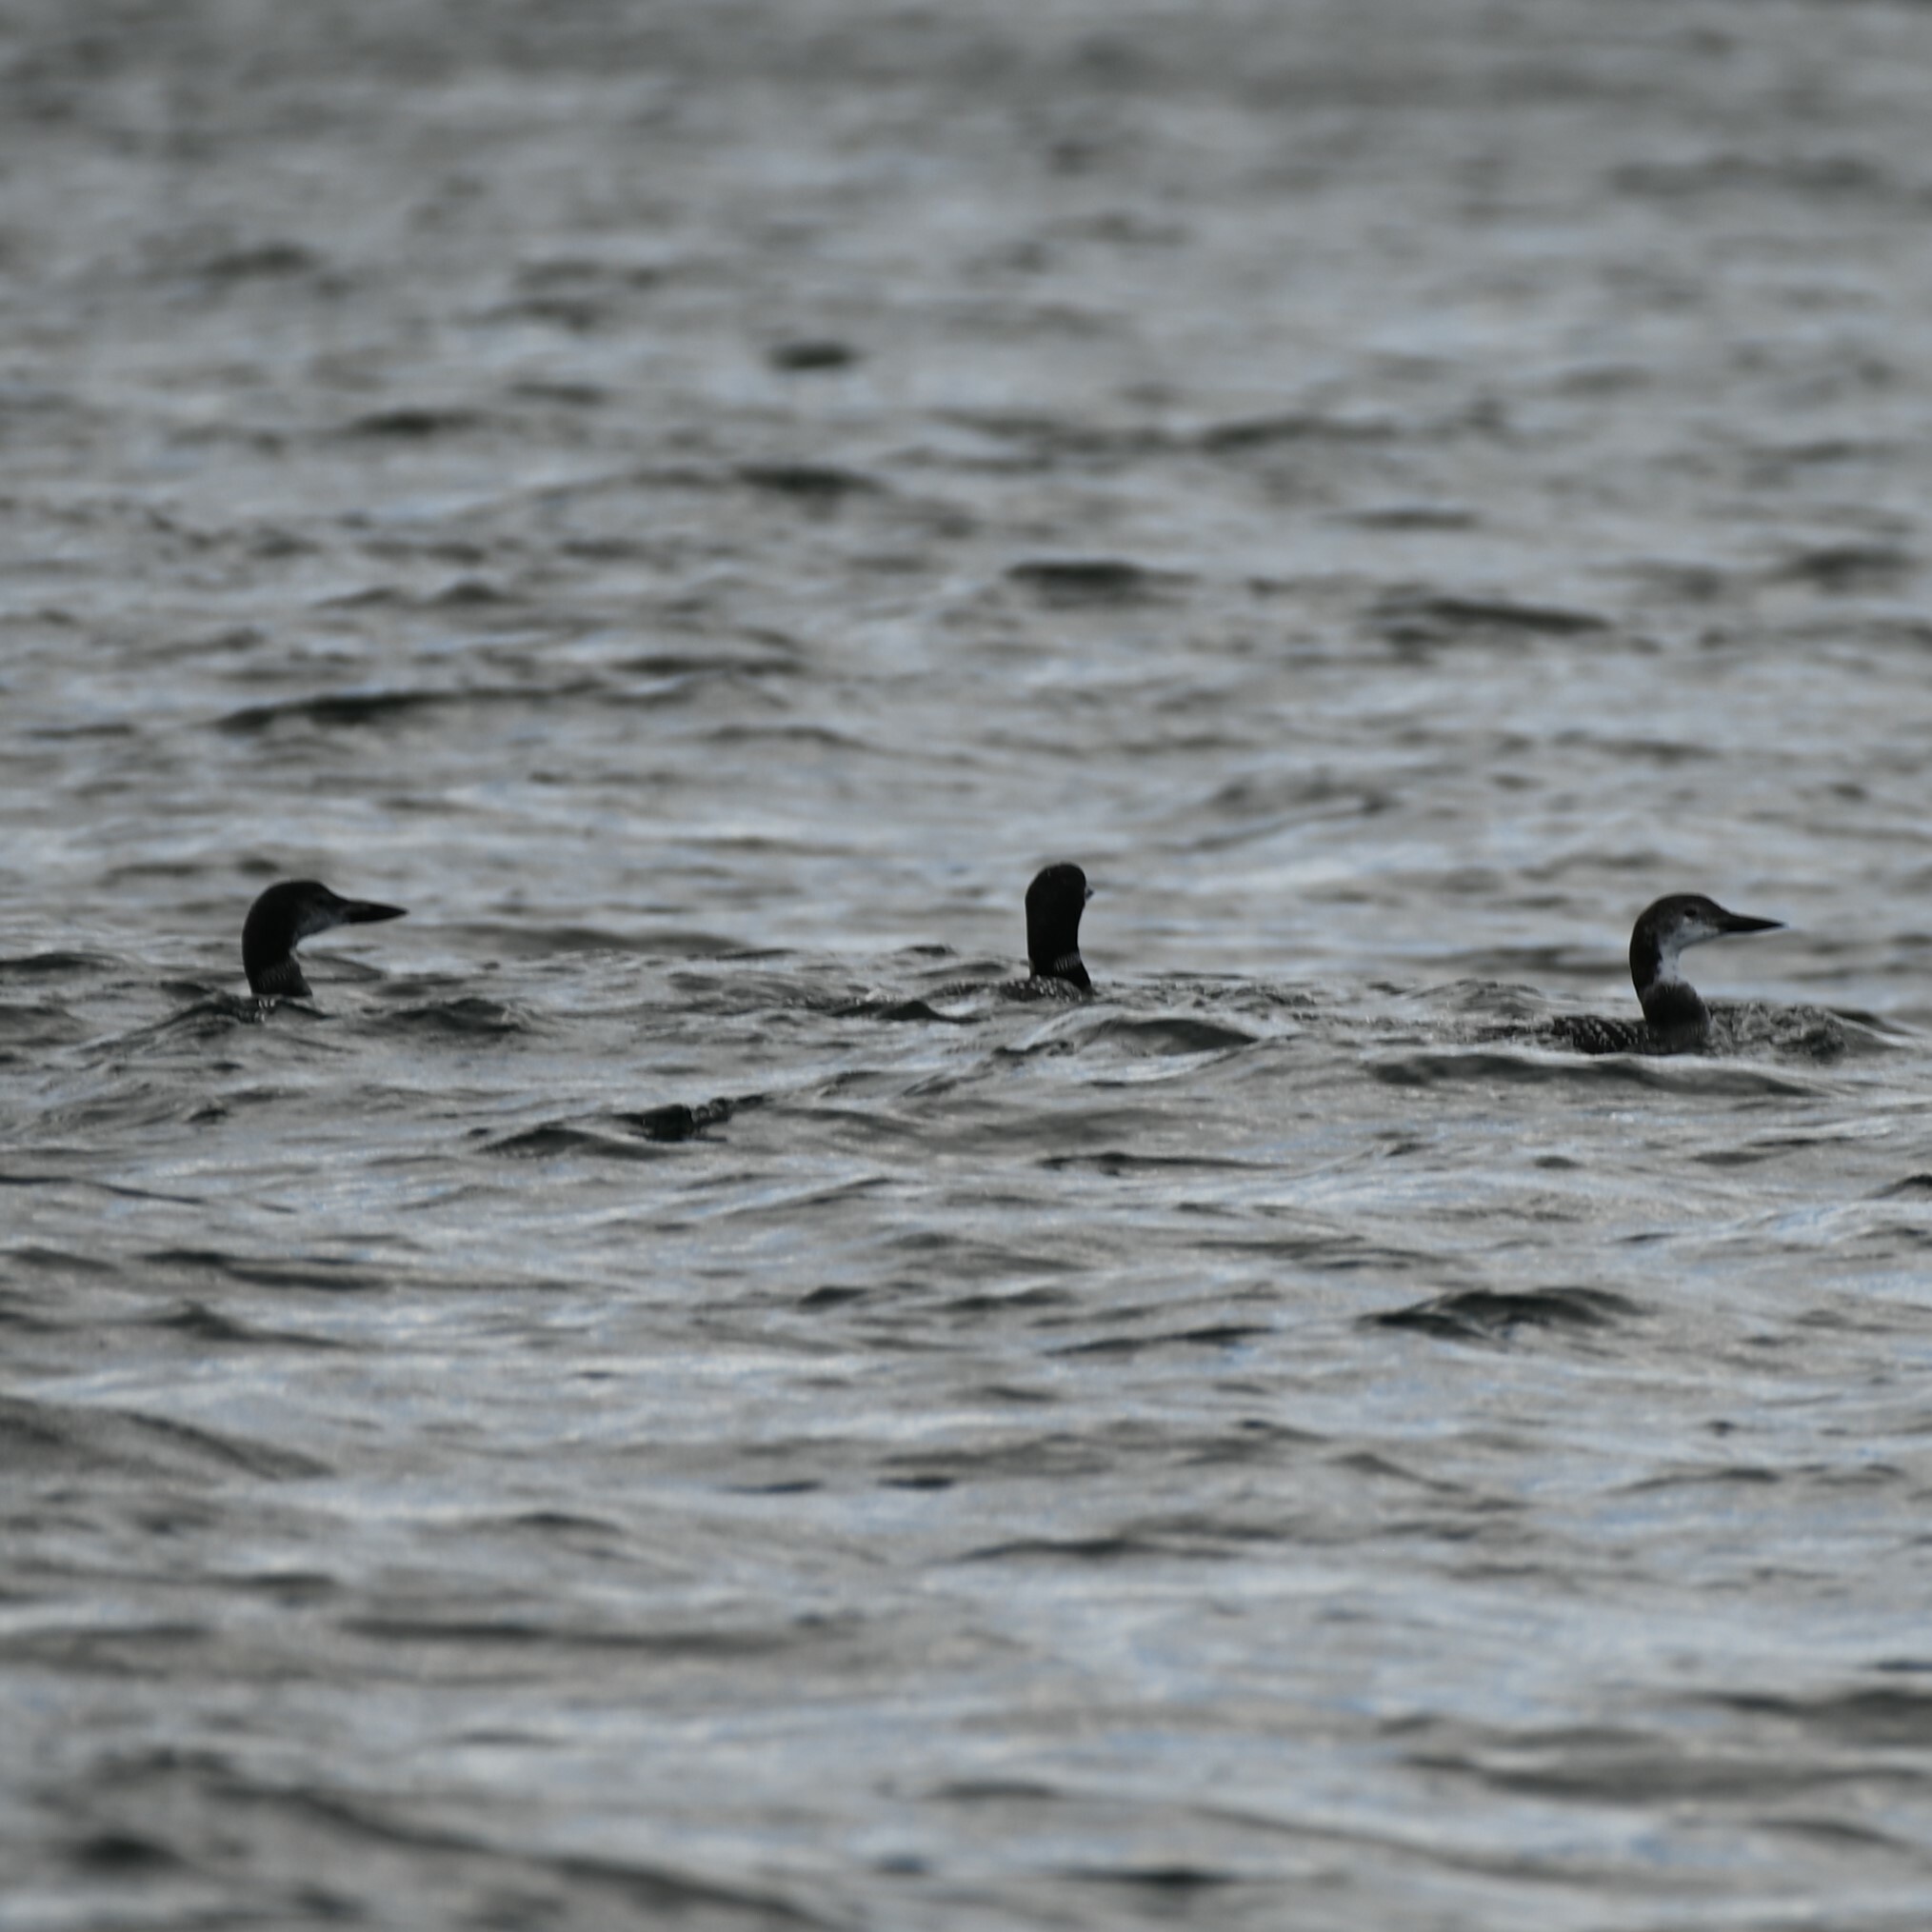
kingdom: Animalia
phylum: Chordata
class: Aves
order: Gaviiformes
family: Gaviidae
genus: Gavia
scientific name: Gavia immer
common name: Common loon
